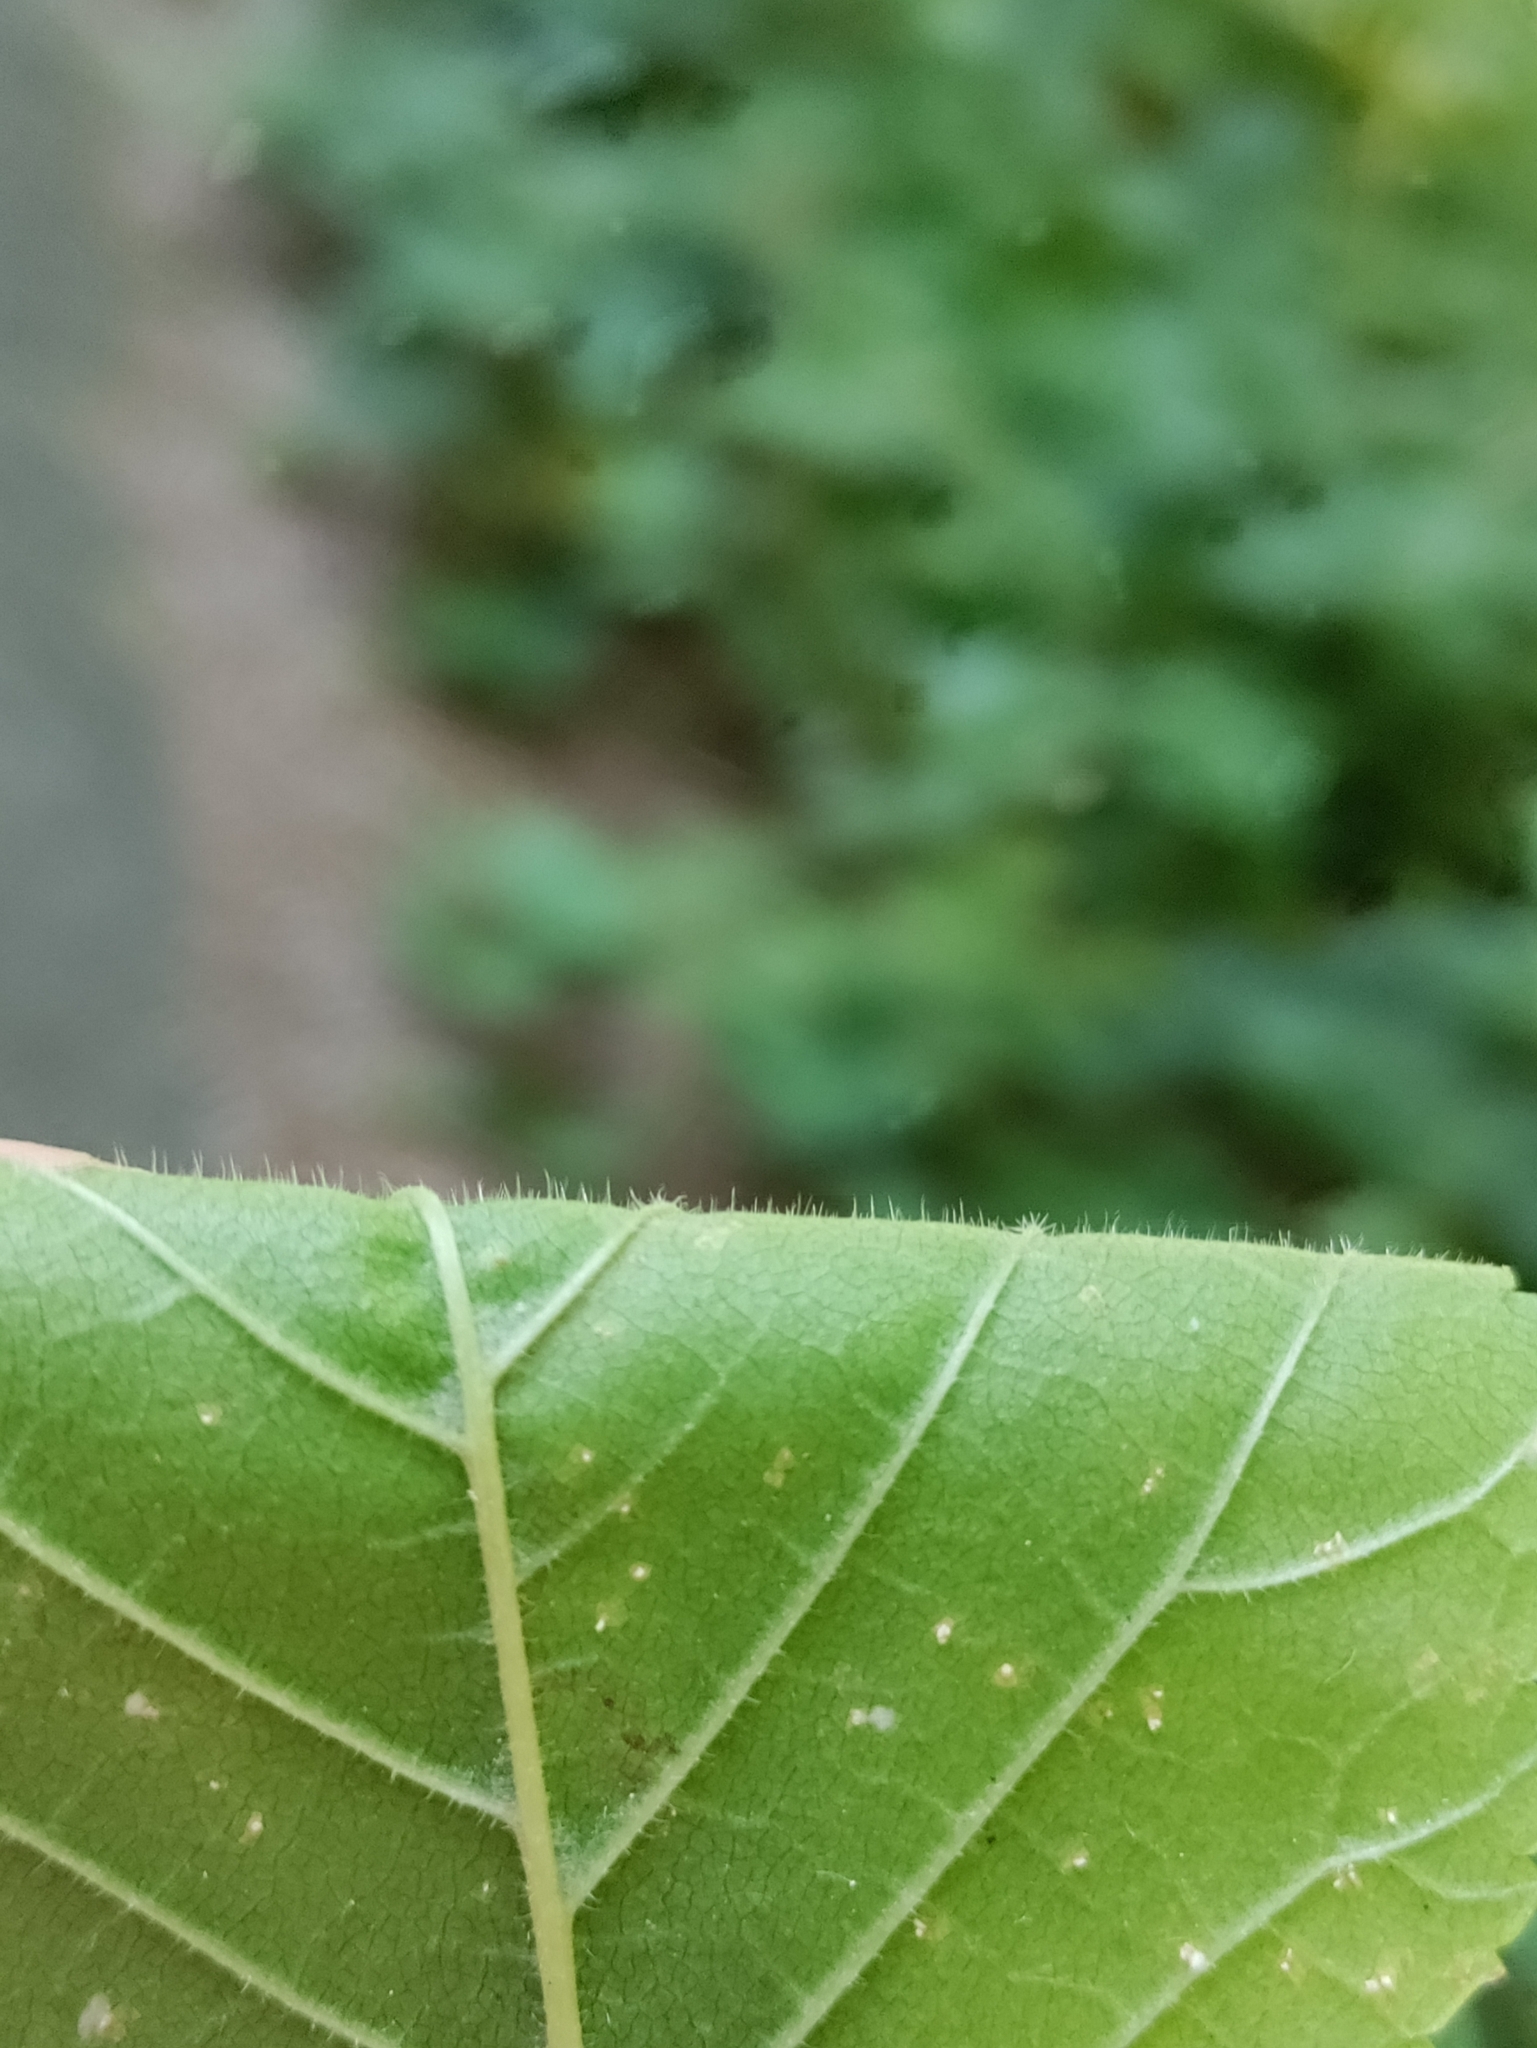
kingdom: Plantae
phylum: Tracheophyta
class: Magnoliopsida
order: Rosales
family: Ulmaceae
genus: Ulmus
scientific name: Ulmus glabra
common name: Wych elm
